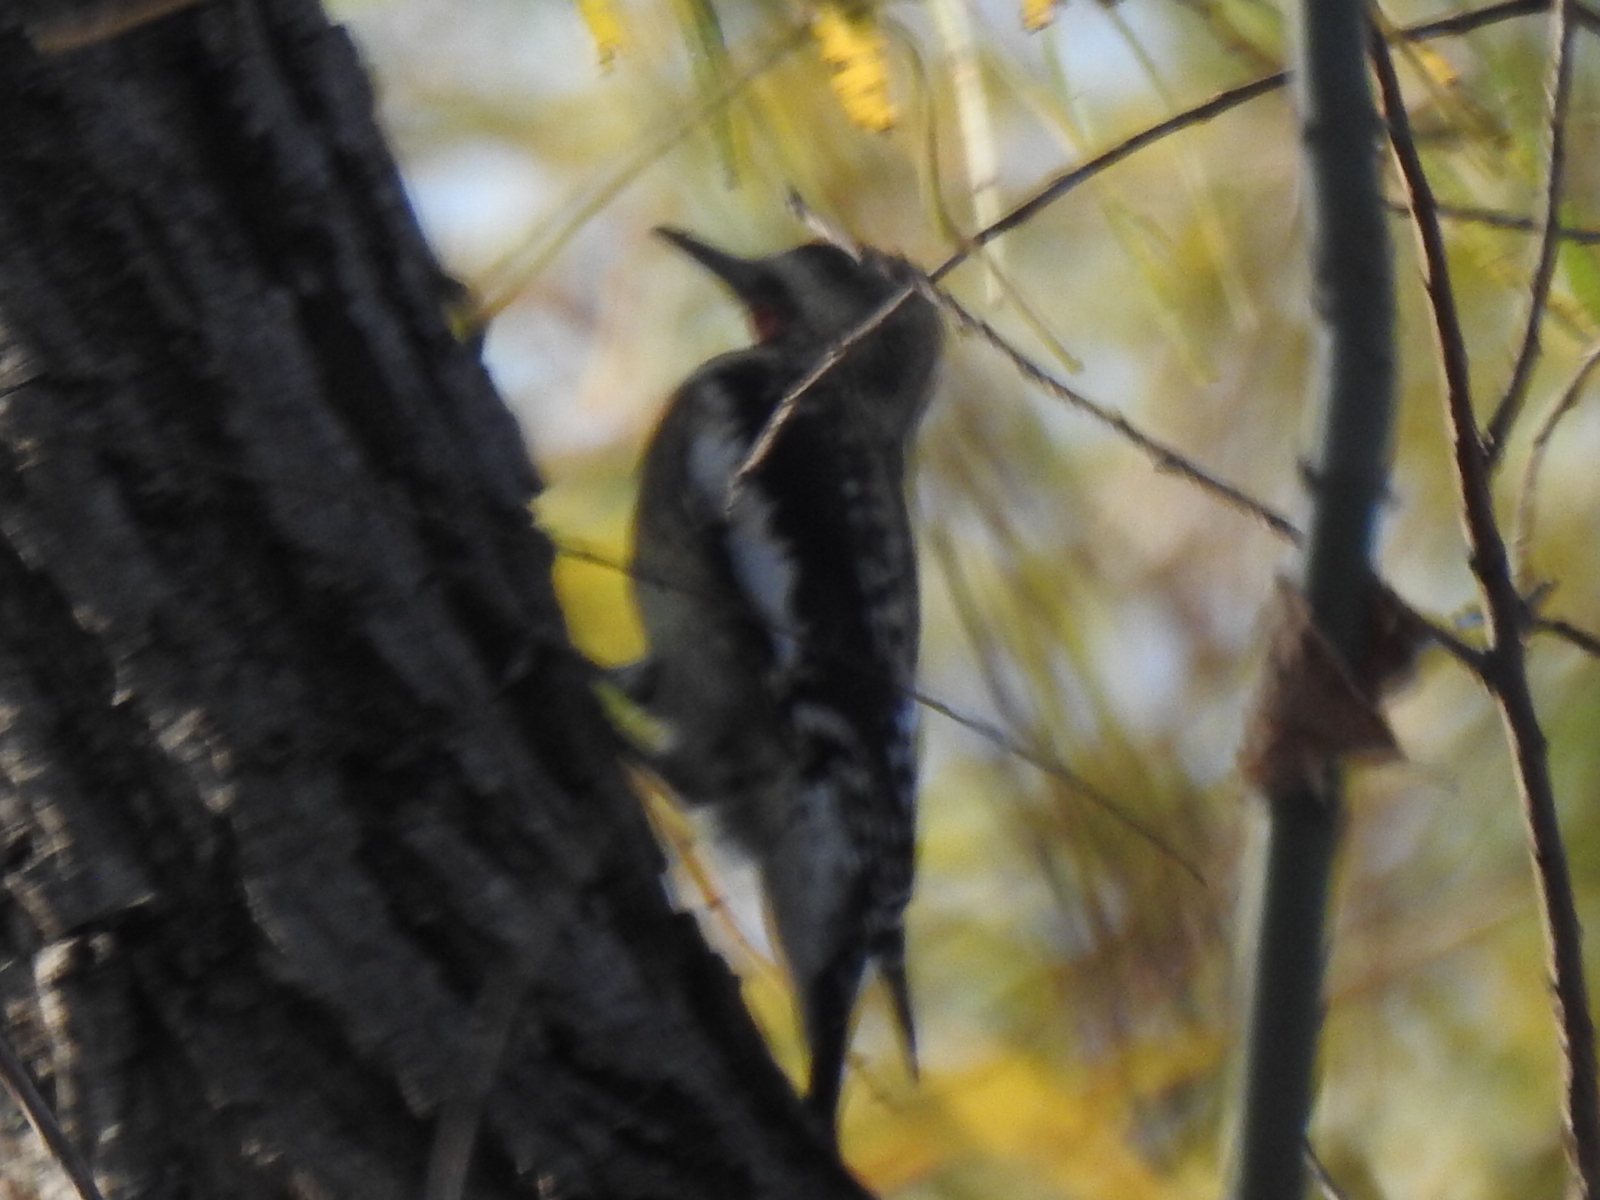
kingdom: Animalia
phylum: Chordata
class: Aves
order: Piciformes
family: Picidae
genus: Sphyrapicus
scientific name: Sphyrapicus varius
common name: Yellow-bellied sapsucker
